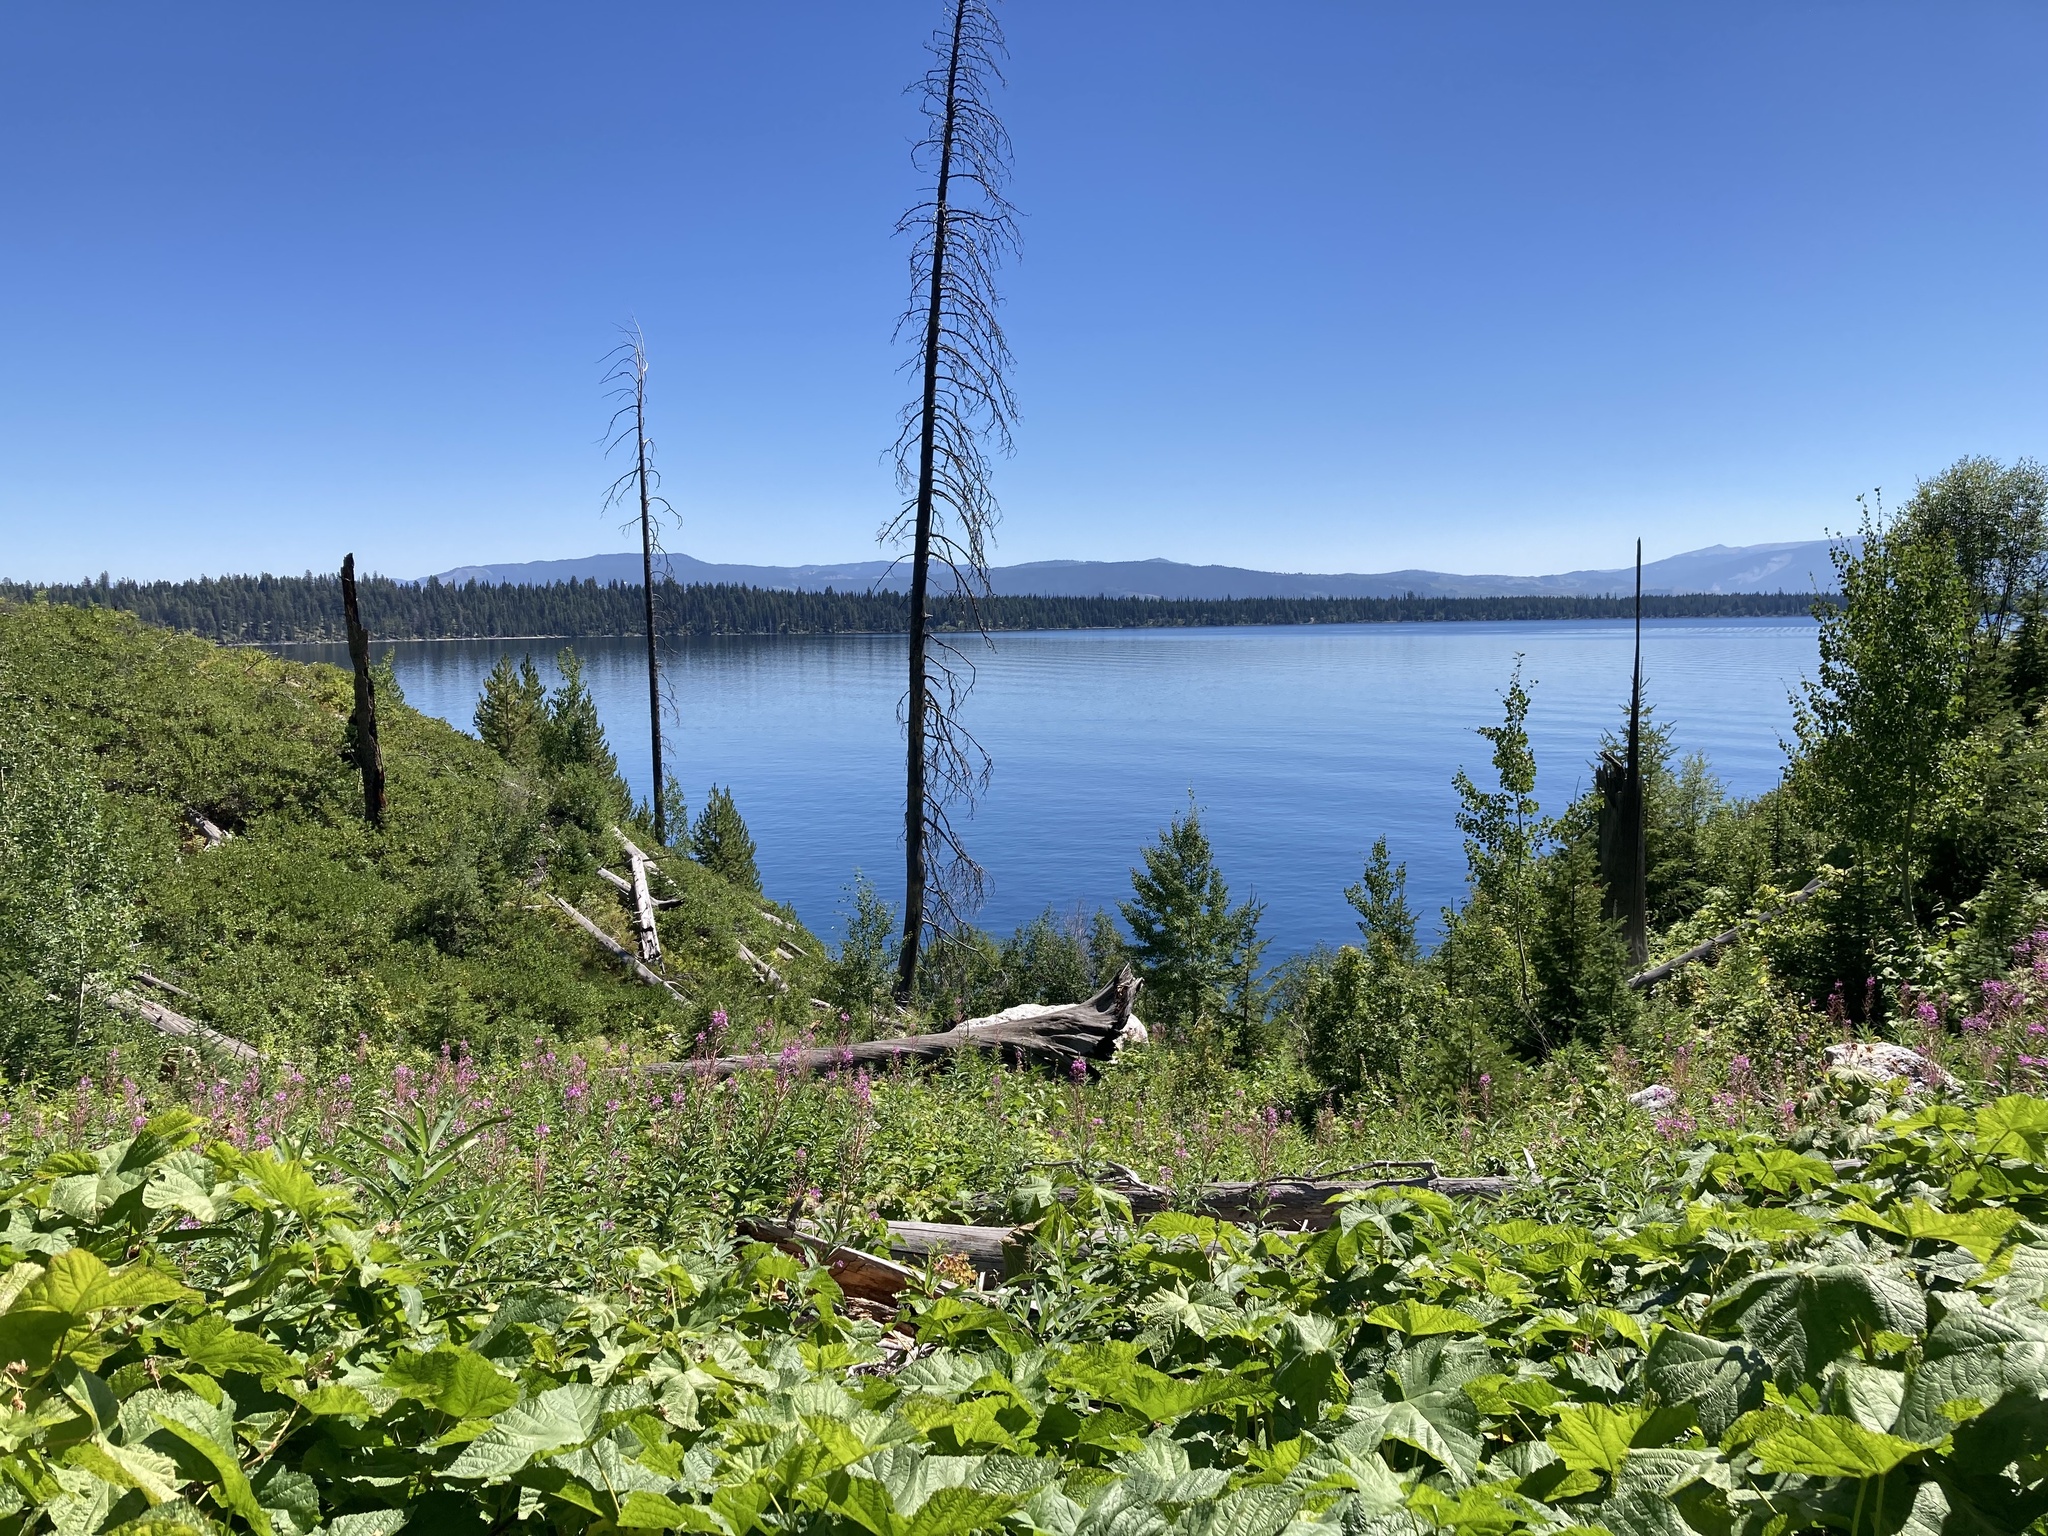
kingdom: Plantae
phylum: Tracheophyta
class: Magnoliopsida
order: Myrtales
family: Onagraceae
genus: Chamaenerion
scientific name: Chamaenerion angustifolium
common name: Fireweed
